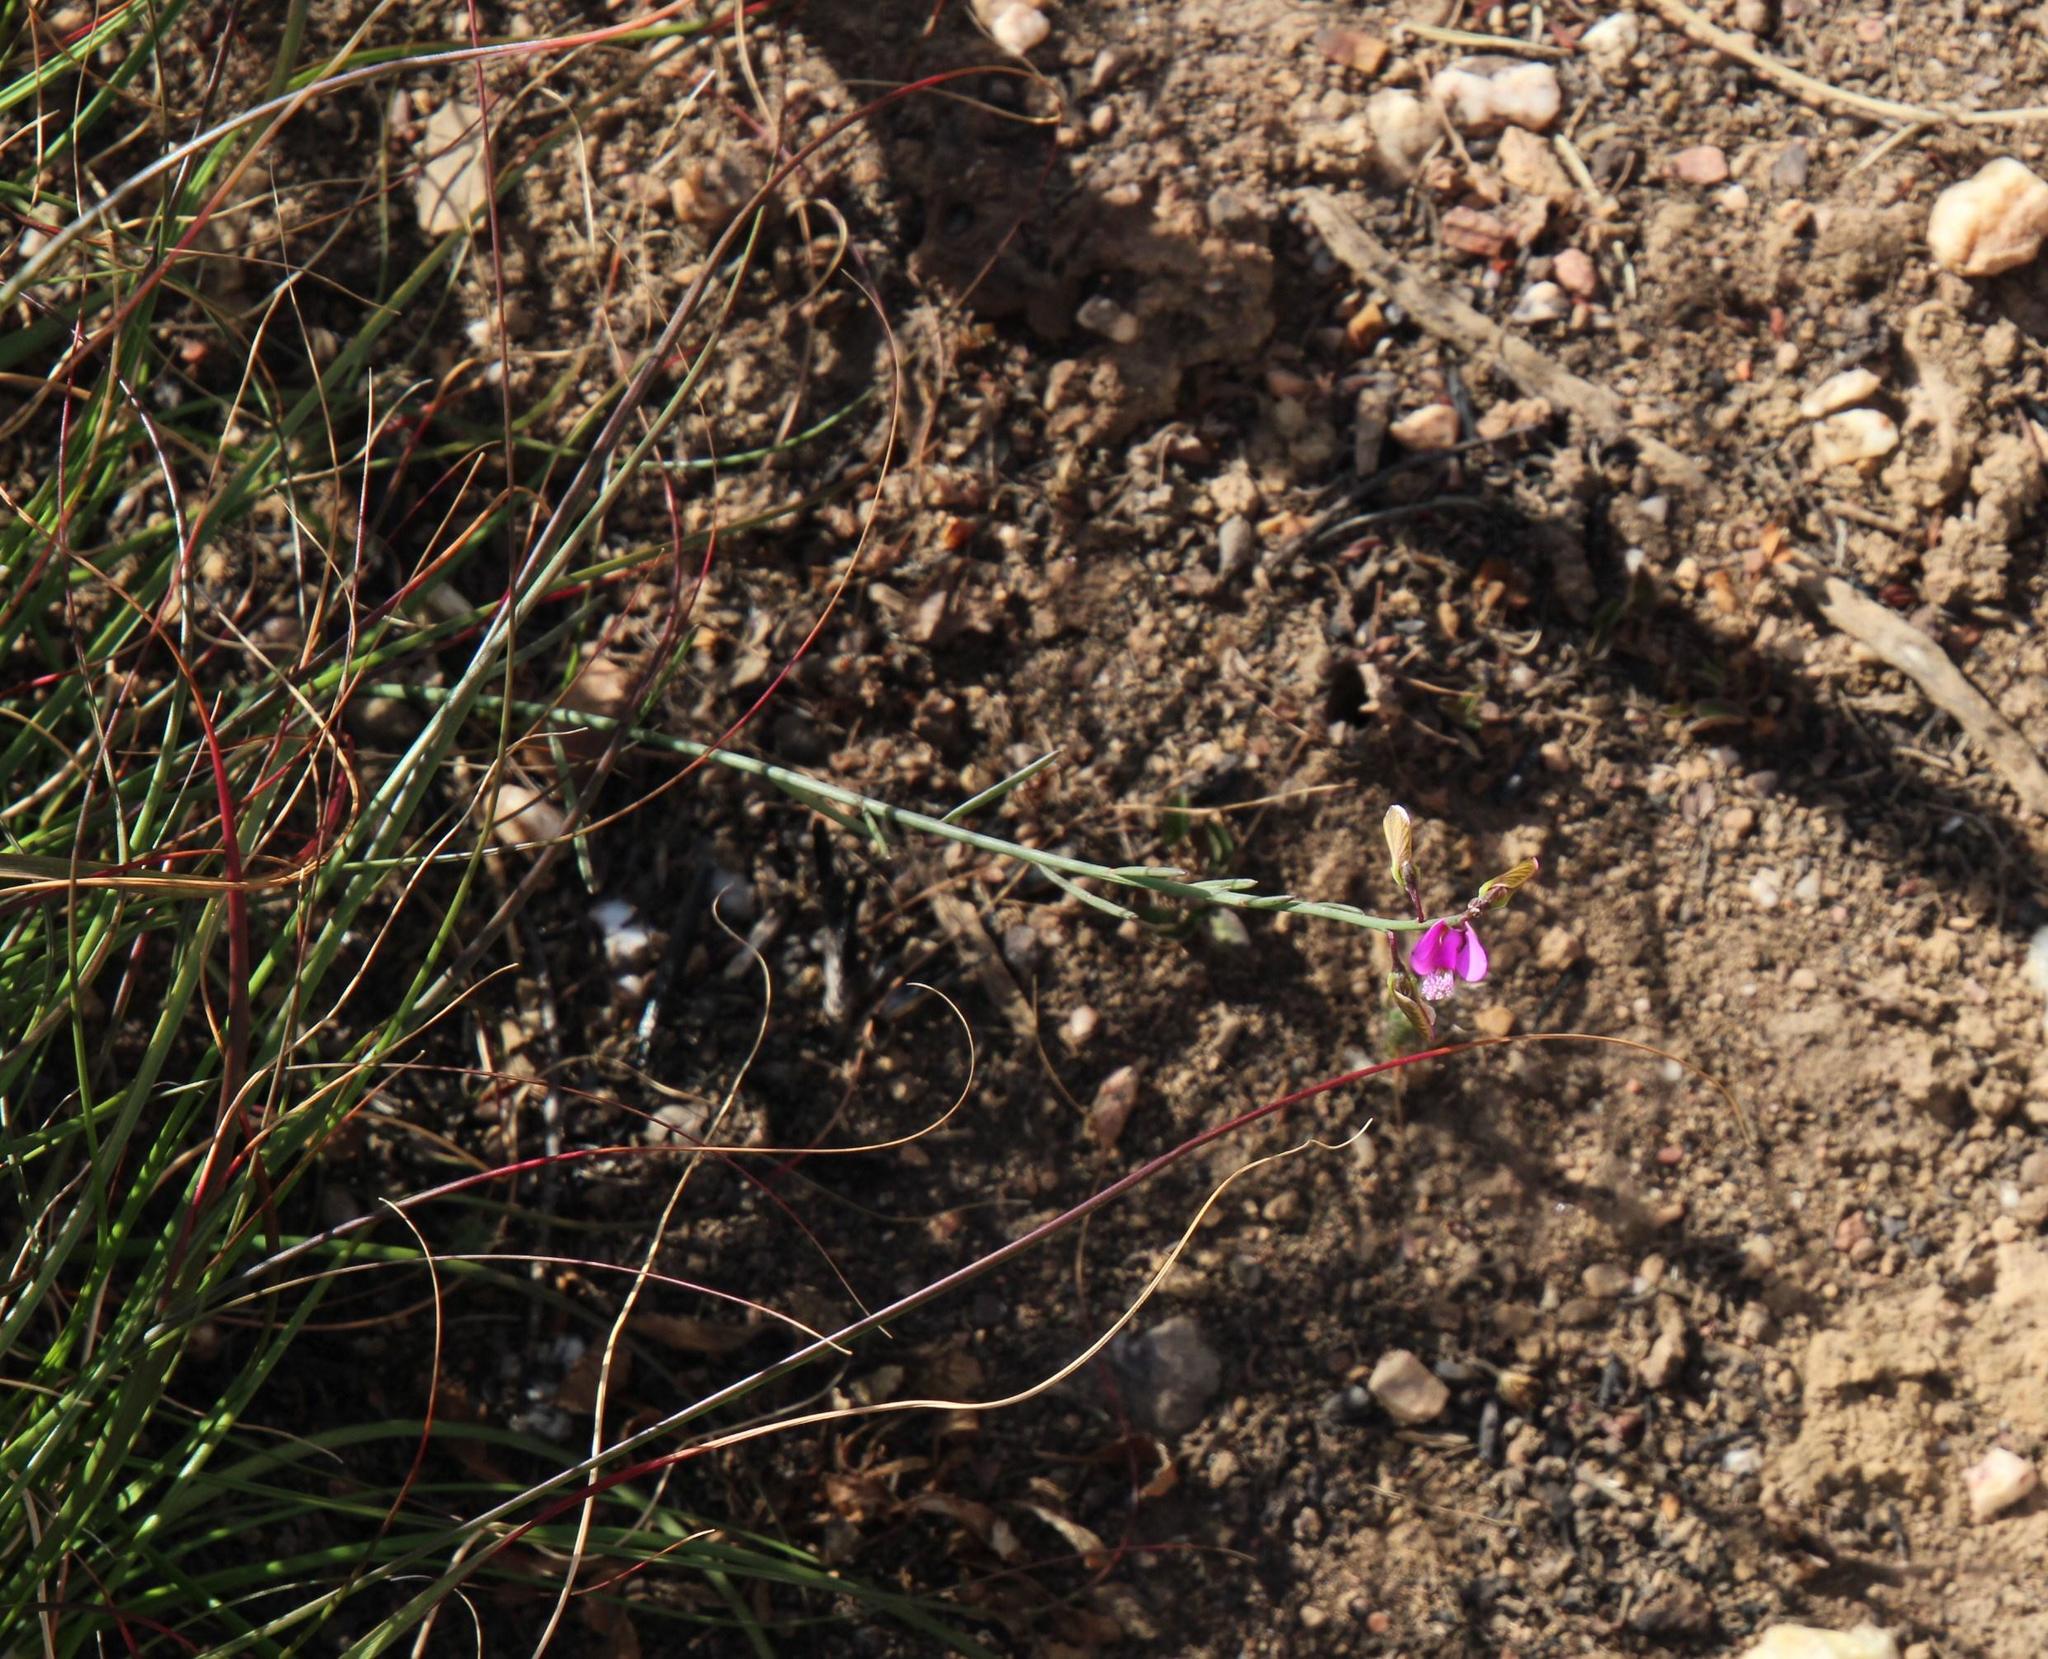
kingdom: Plantae
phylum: Tracheophyta
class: Magnoliopsida
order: Fabales
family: Polygalaceae
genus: Polygala
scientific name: Polygala garcini
